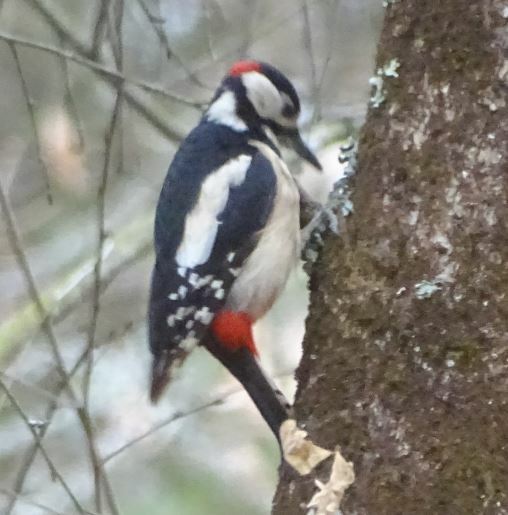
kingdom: Animalia
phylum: Chordata
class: Aves
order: Piciformes
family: Picidae
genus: Dendrocopos
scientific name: Dendrocopos major
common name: Great spotted woodpecker
